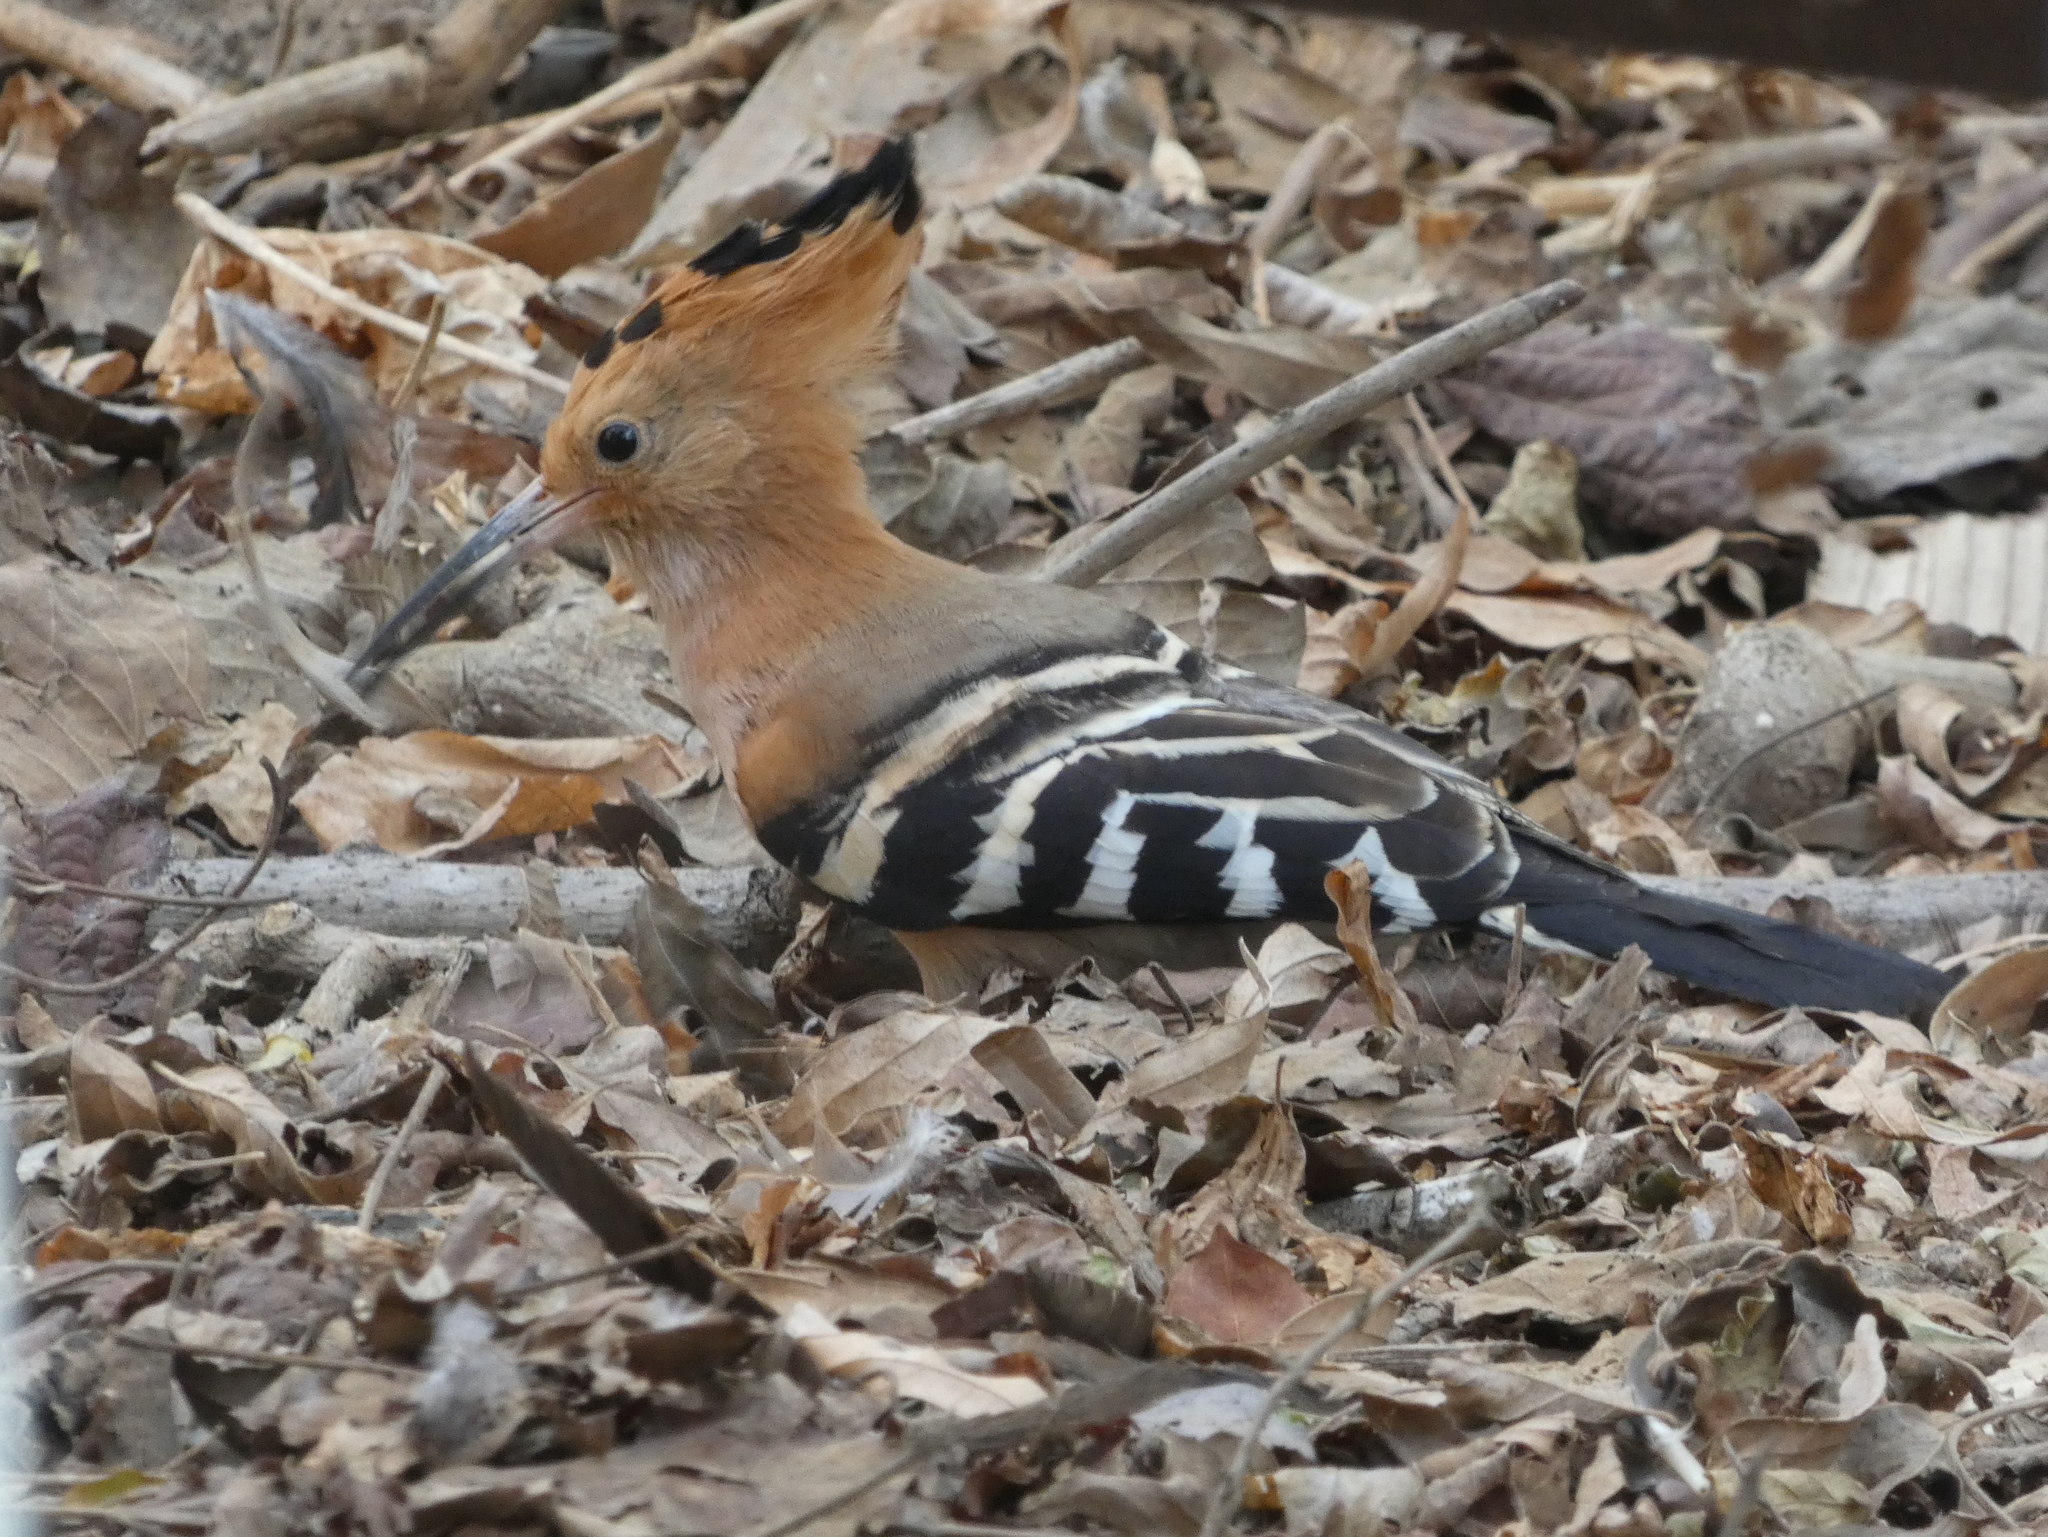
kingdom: Animalia
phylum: Chordata
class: Aves
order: Bucerotiformes
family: Upupidae
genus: Upupa
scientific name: Upupa marginata
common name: Madagascar hoopoe
